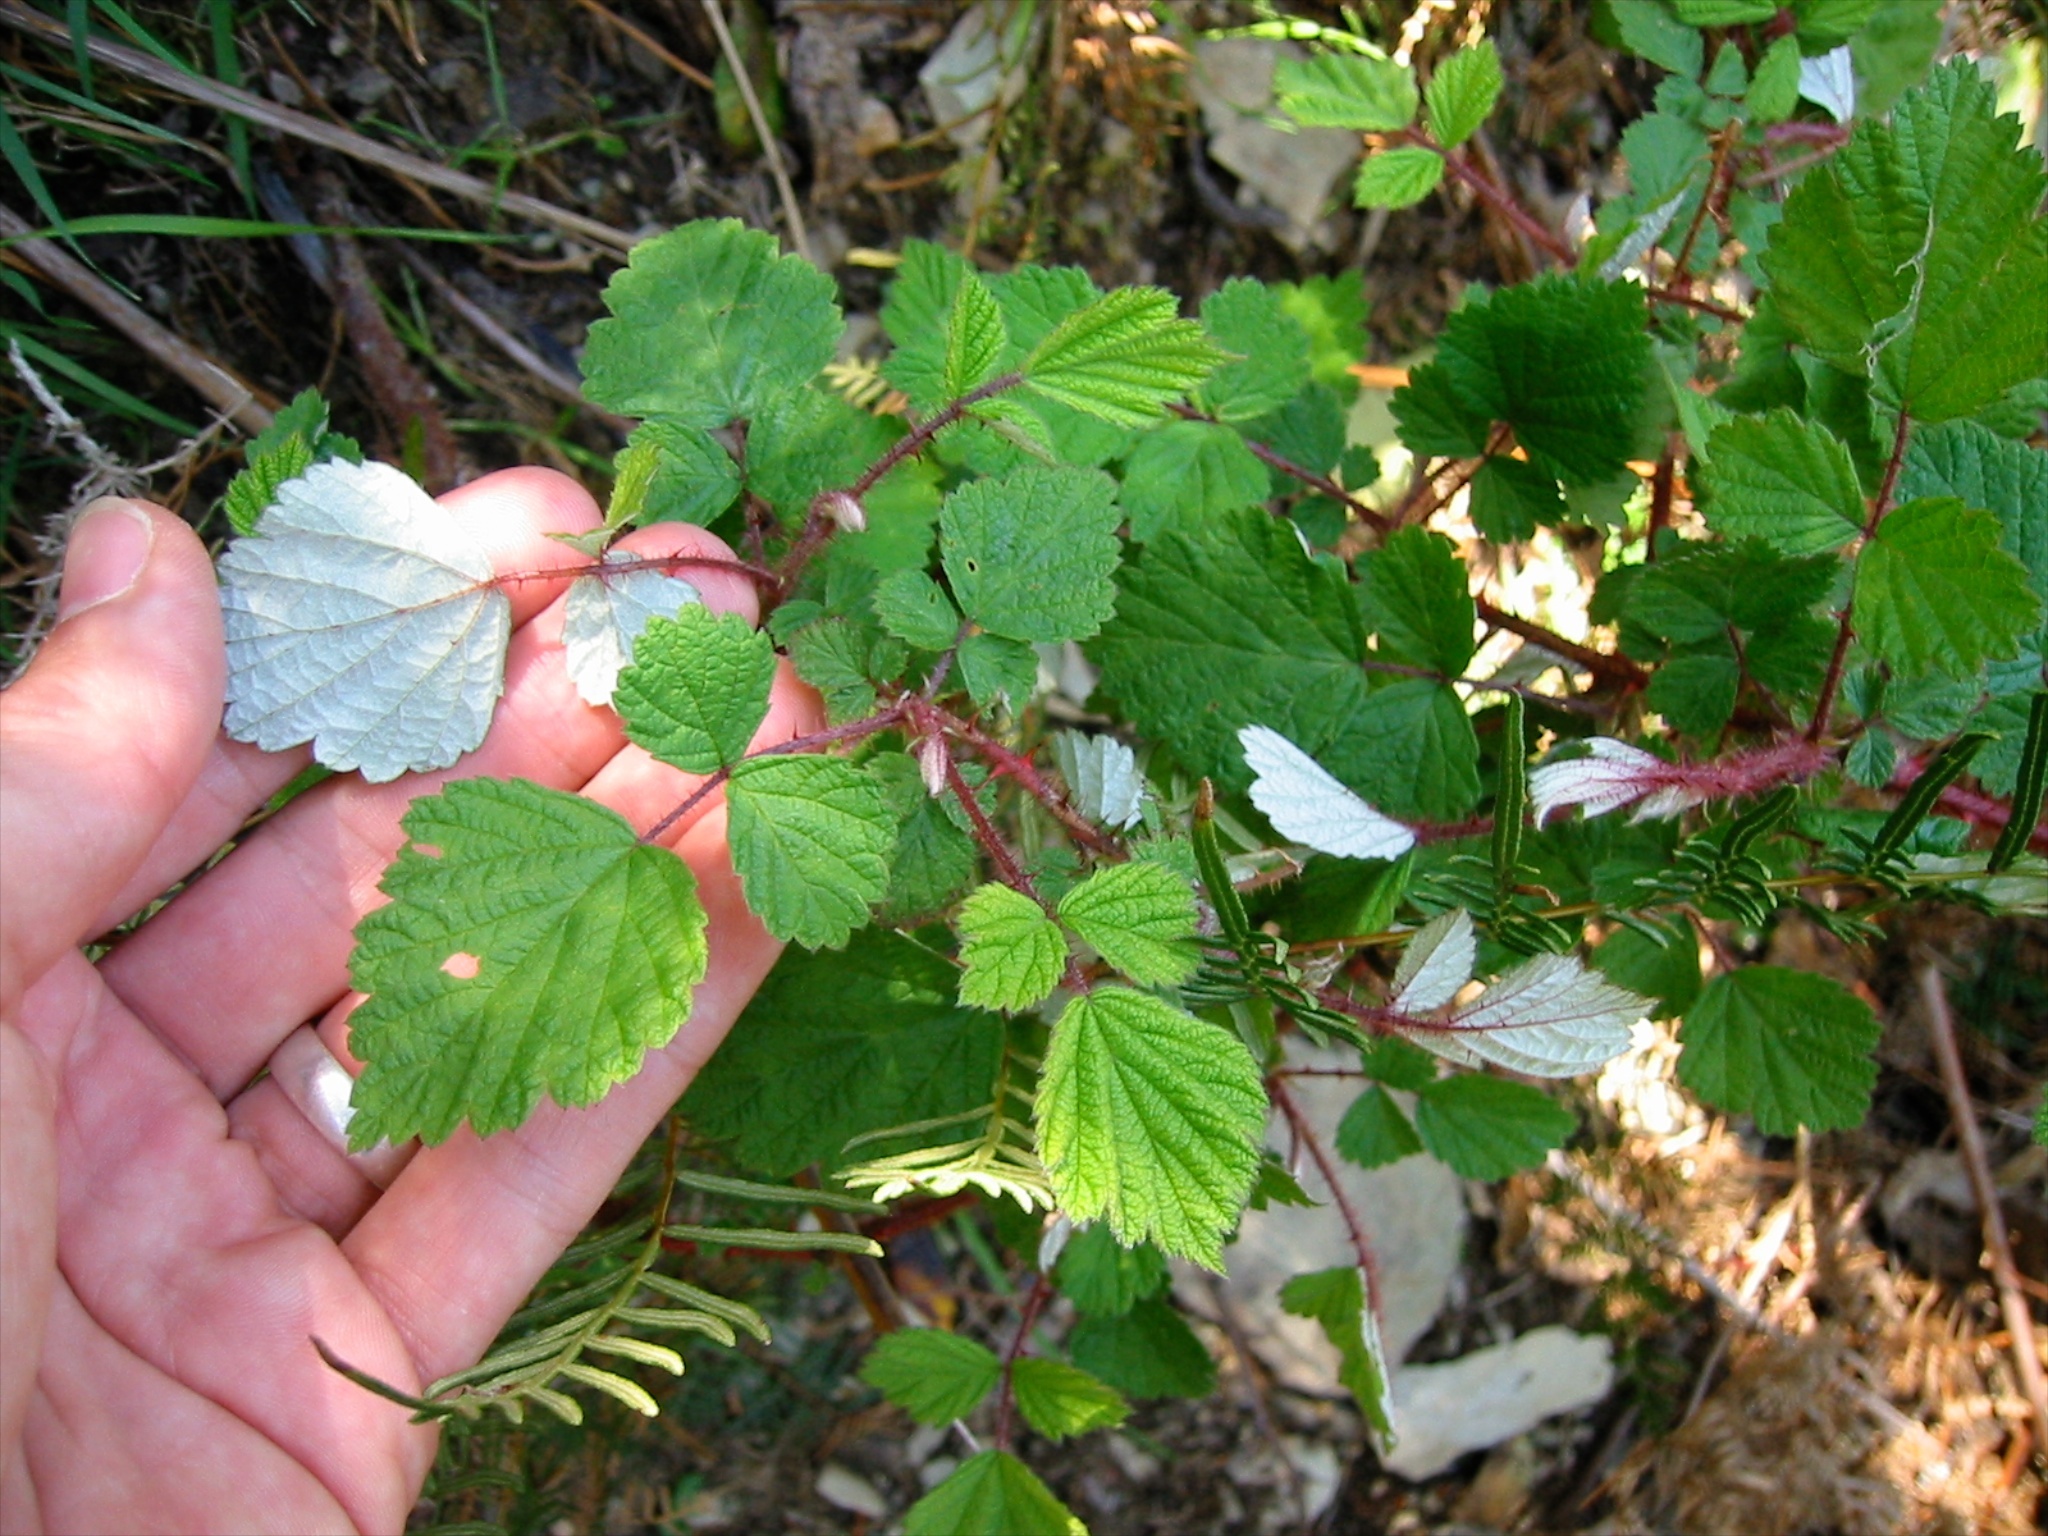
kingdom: Plantae
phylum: Tracheophyta
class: Magnoliopsida
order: Rosales
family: Rosaceae
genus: Rubus
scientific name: Rubus phoenicolasius
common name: Japanese wineberry
